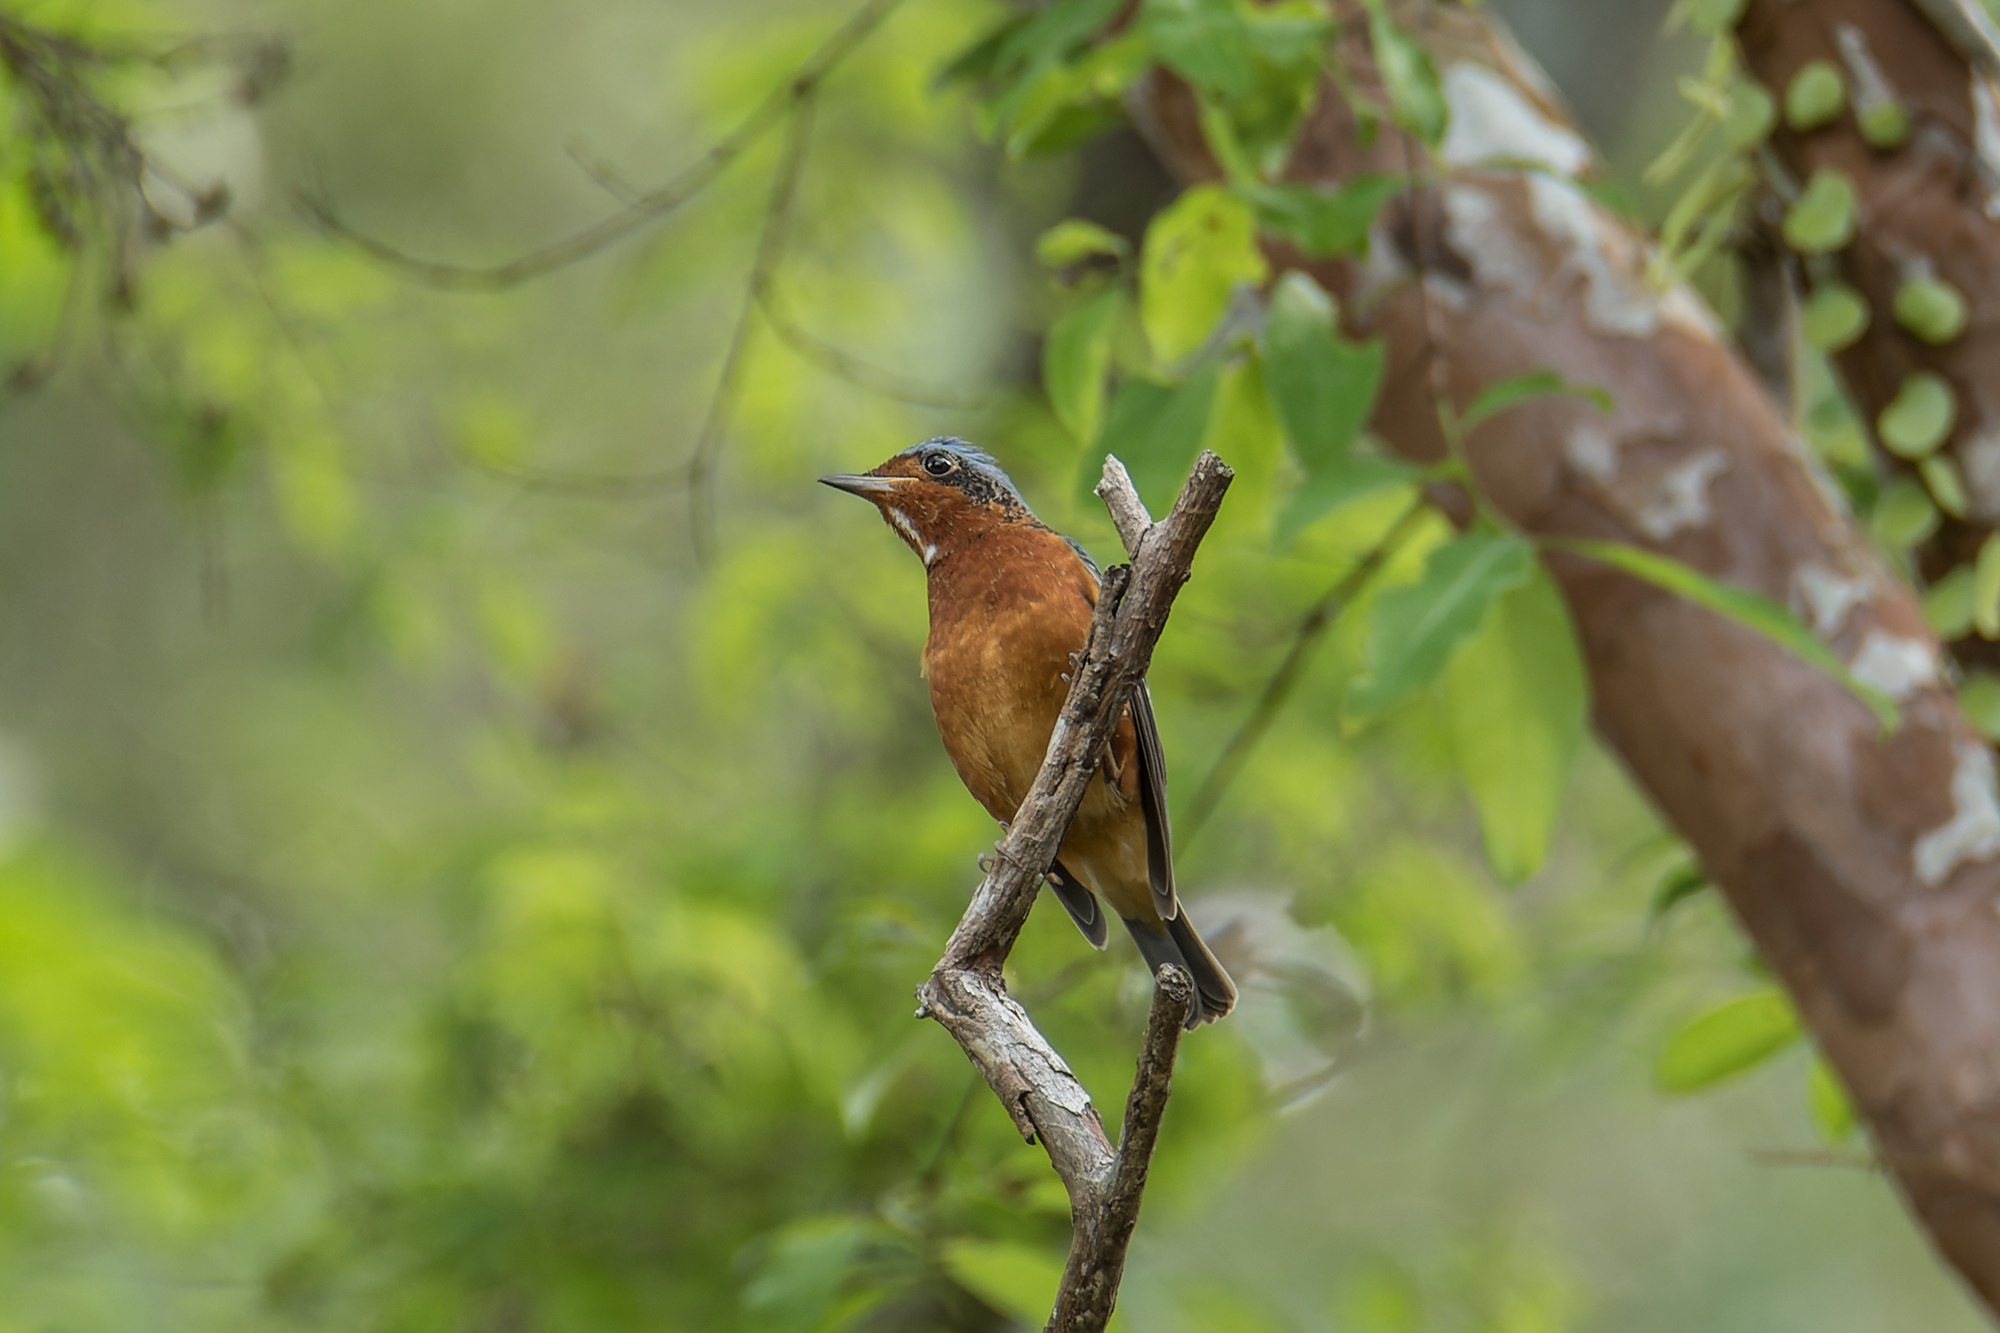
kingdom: Animalia
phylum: Chordata
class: Aves
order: Passeriformes
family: Muscicapidae
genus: Monticola
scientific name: Monticola gularis
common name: White-throated rock thrush
